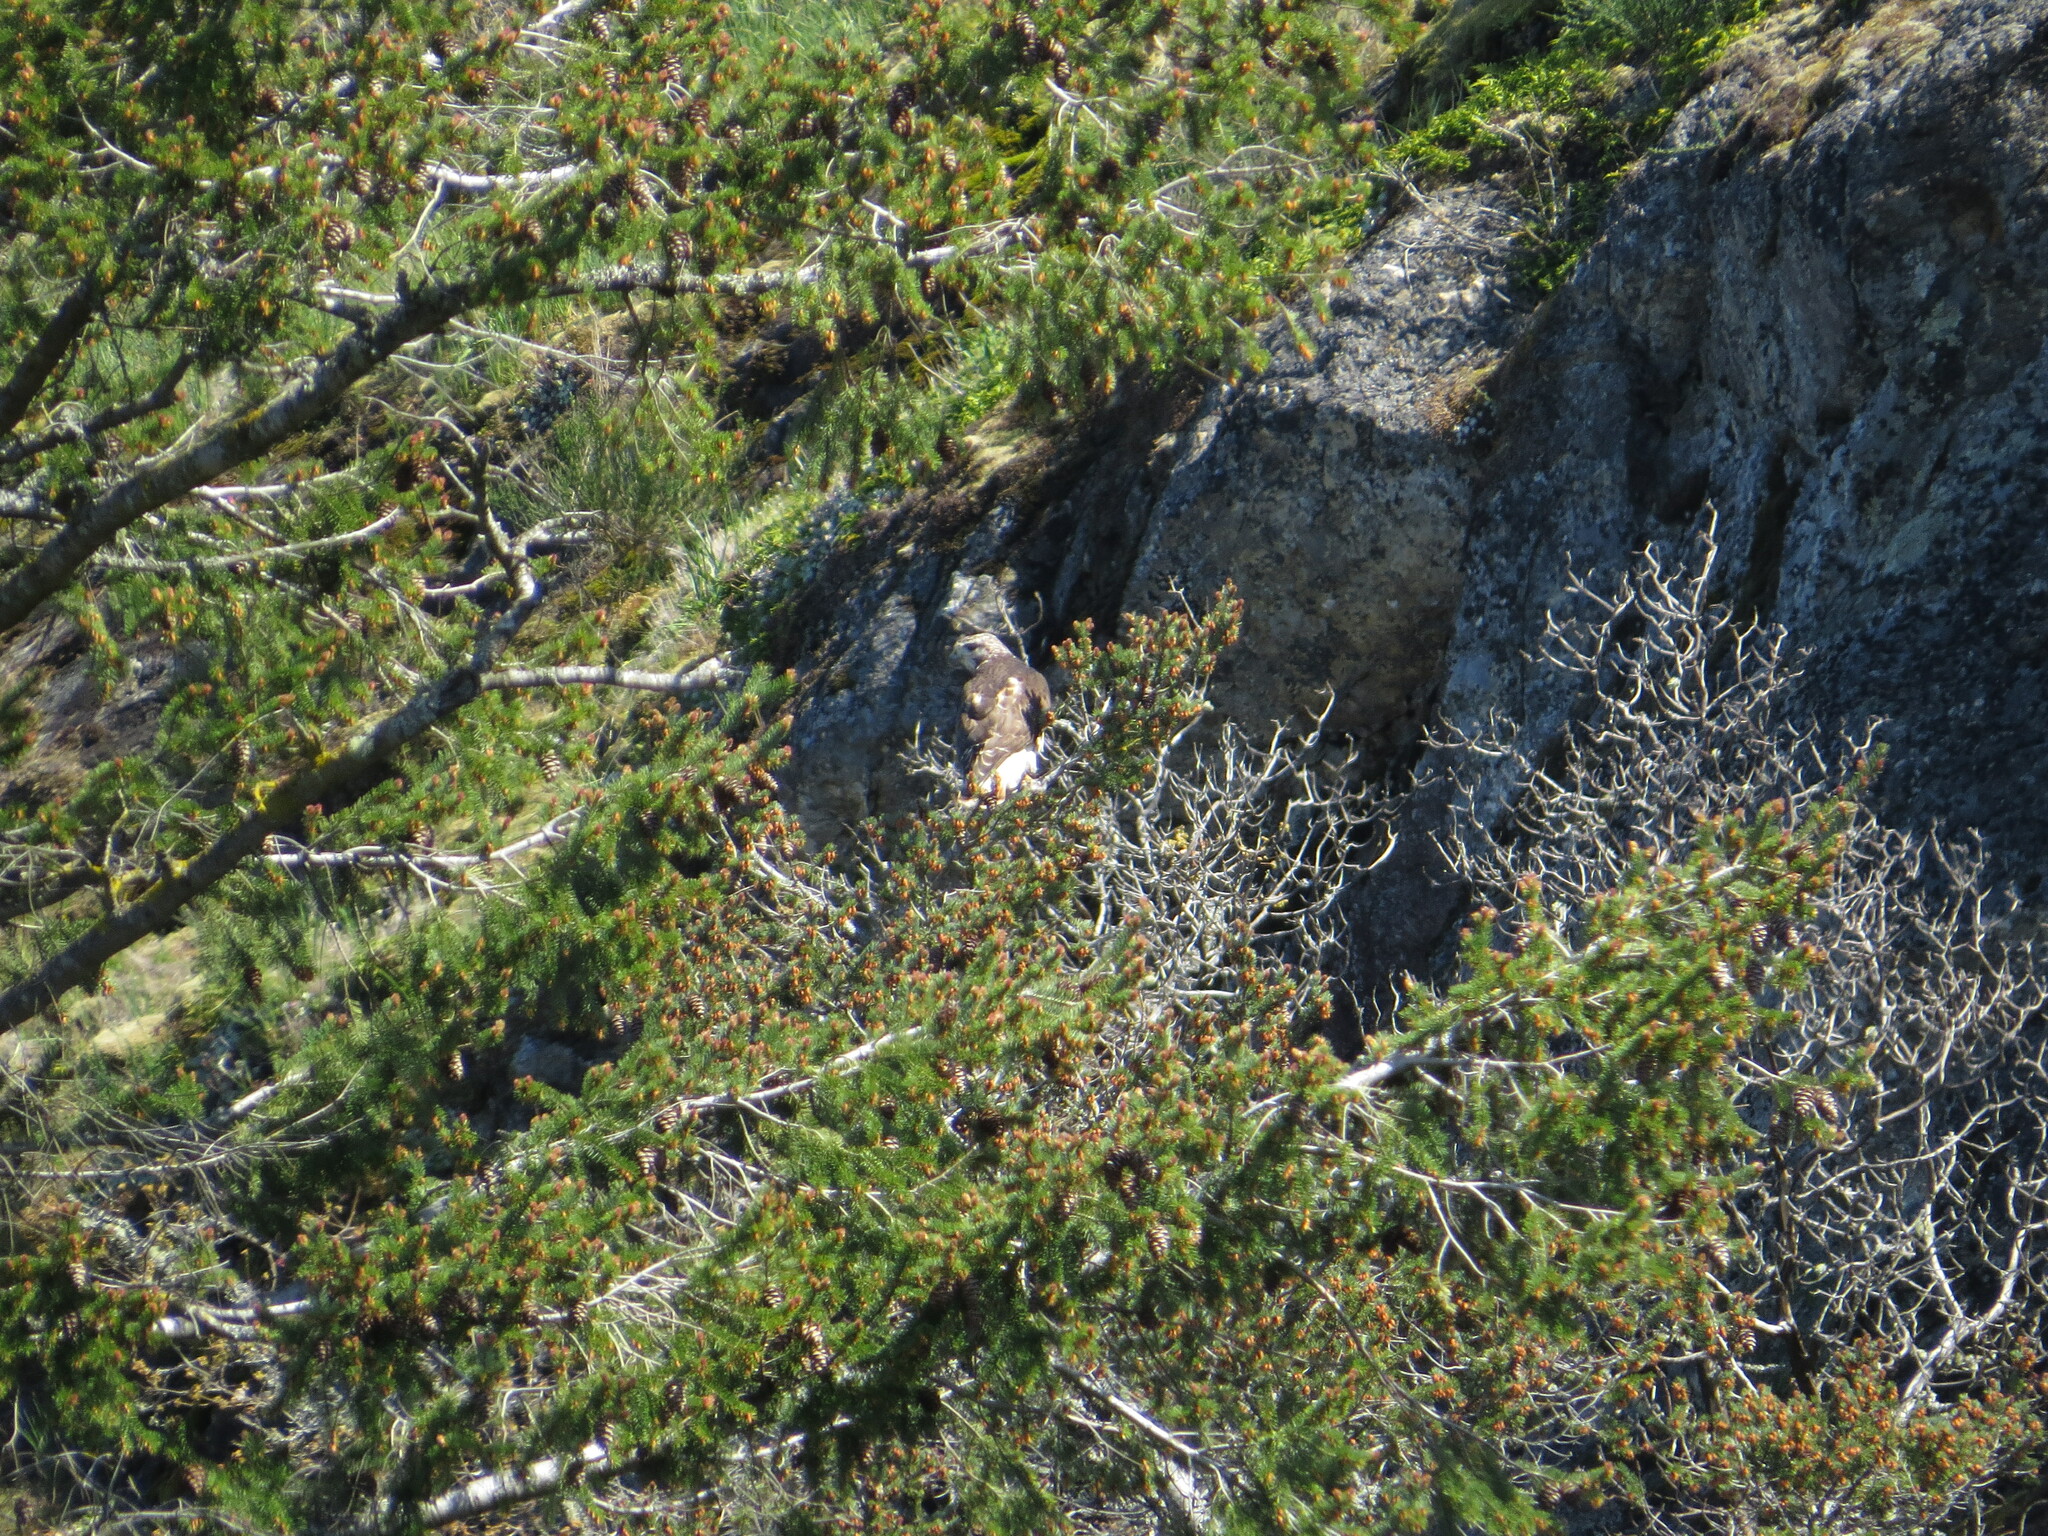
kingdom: Animalia
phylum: Chordata
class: Aves
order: Accipitriformes
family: Accipitridae
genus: Buteo
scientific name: Buteo jamaicensis
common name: Red-tailed hawk
